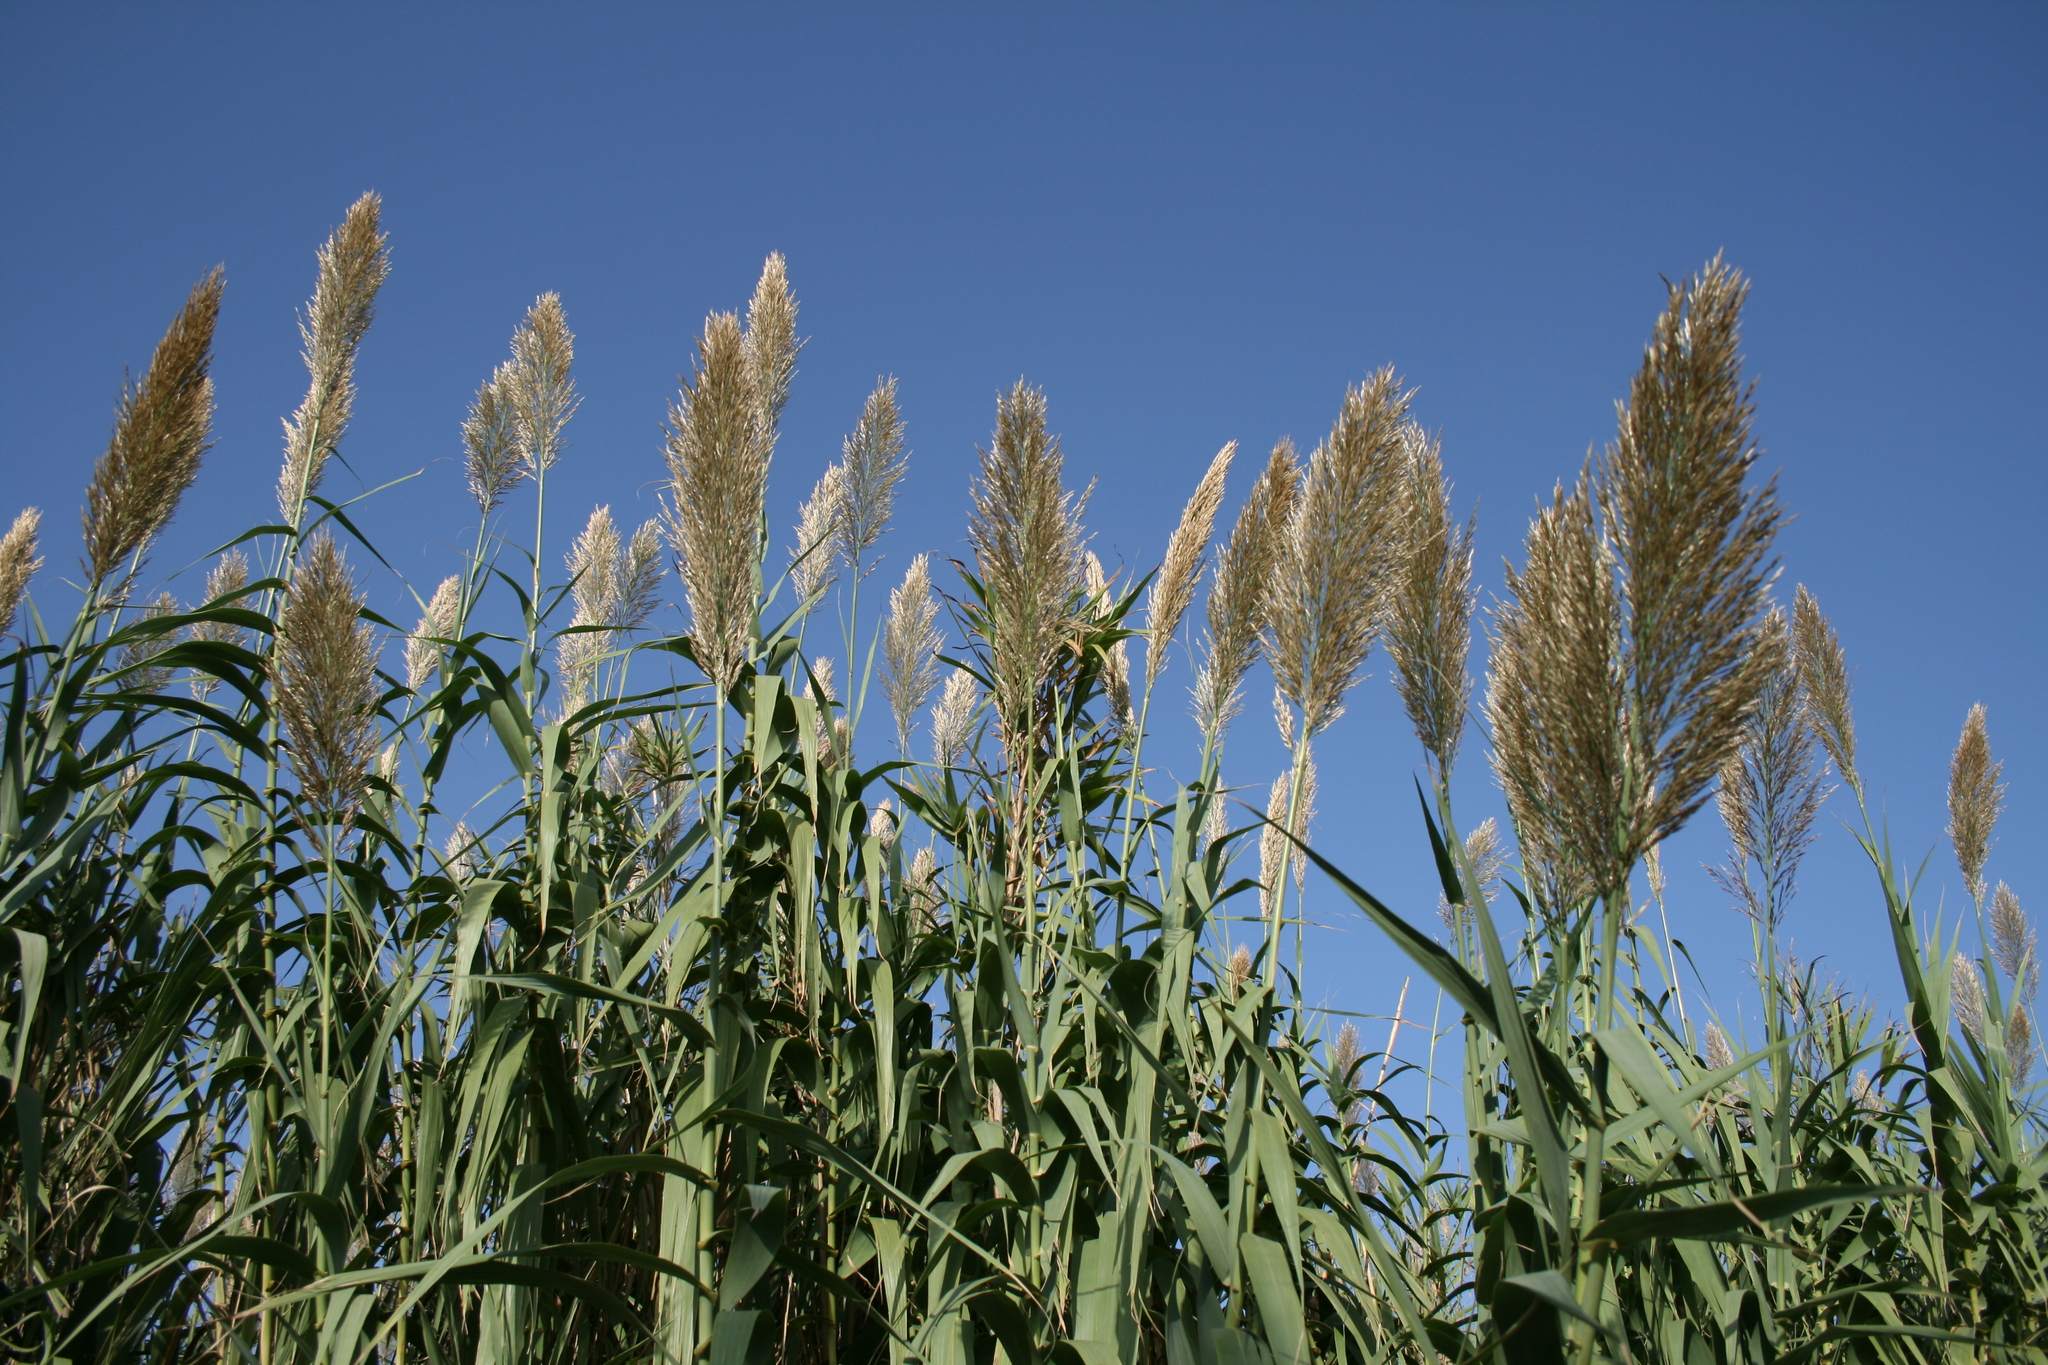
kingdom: Plantae
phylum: Tracheophyta
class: Liliopsida
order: Poales
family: Poaceae
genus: Arundo
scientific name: Arundo donax
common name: Giant reed
